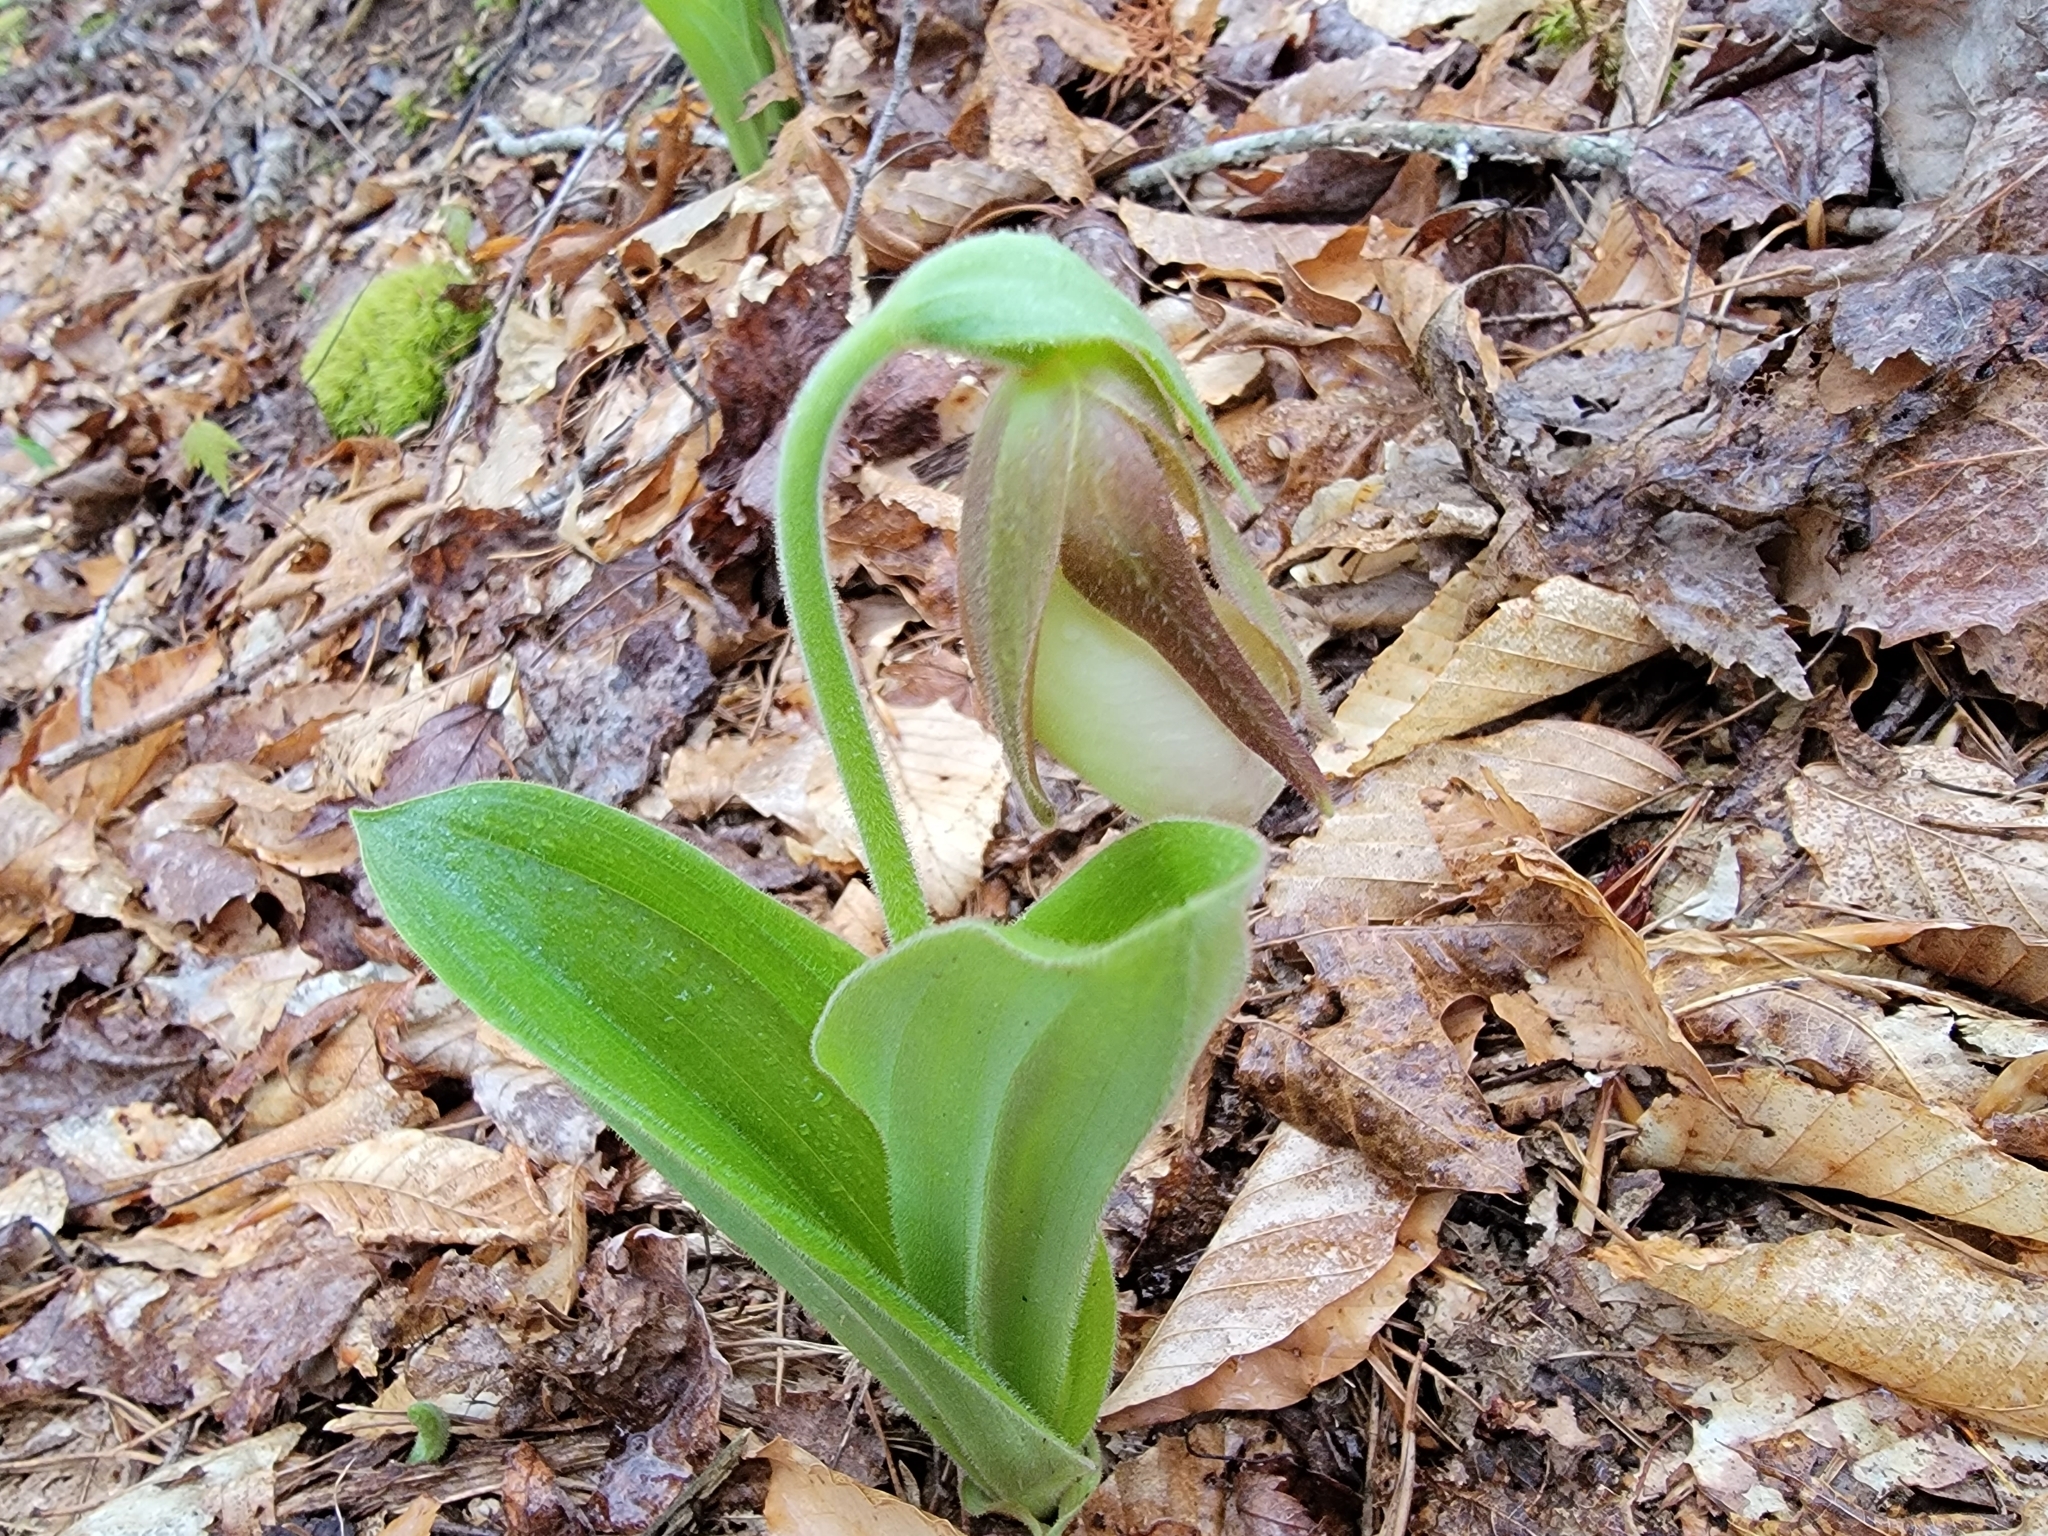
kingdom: Plantae
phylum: Tracheophyta
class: Liliopsida
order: Asparagales
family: Orchidaceae
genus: Cypripedium
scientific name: Cypripedium acaule
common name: Pink lady's-slipper
